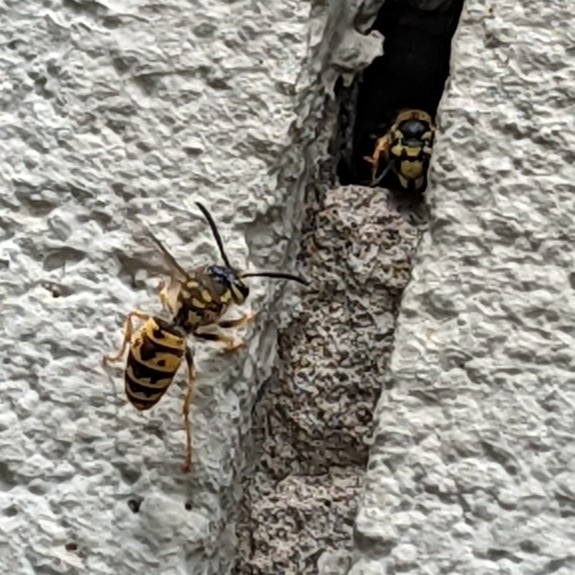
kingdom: Animalia
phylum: Arthropoda
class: Insecta
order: Hymenoptera
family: Vespidae
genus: Vespula
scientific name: Vespula germanica
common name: German wasp
